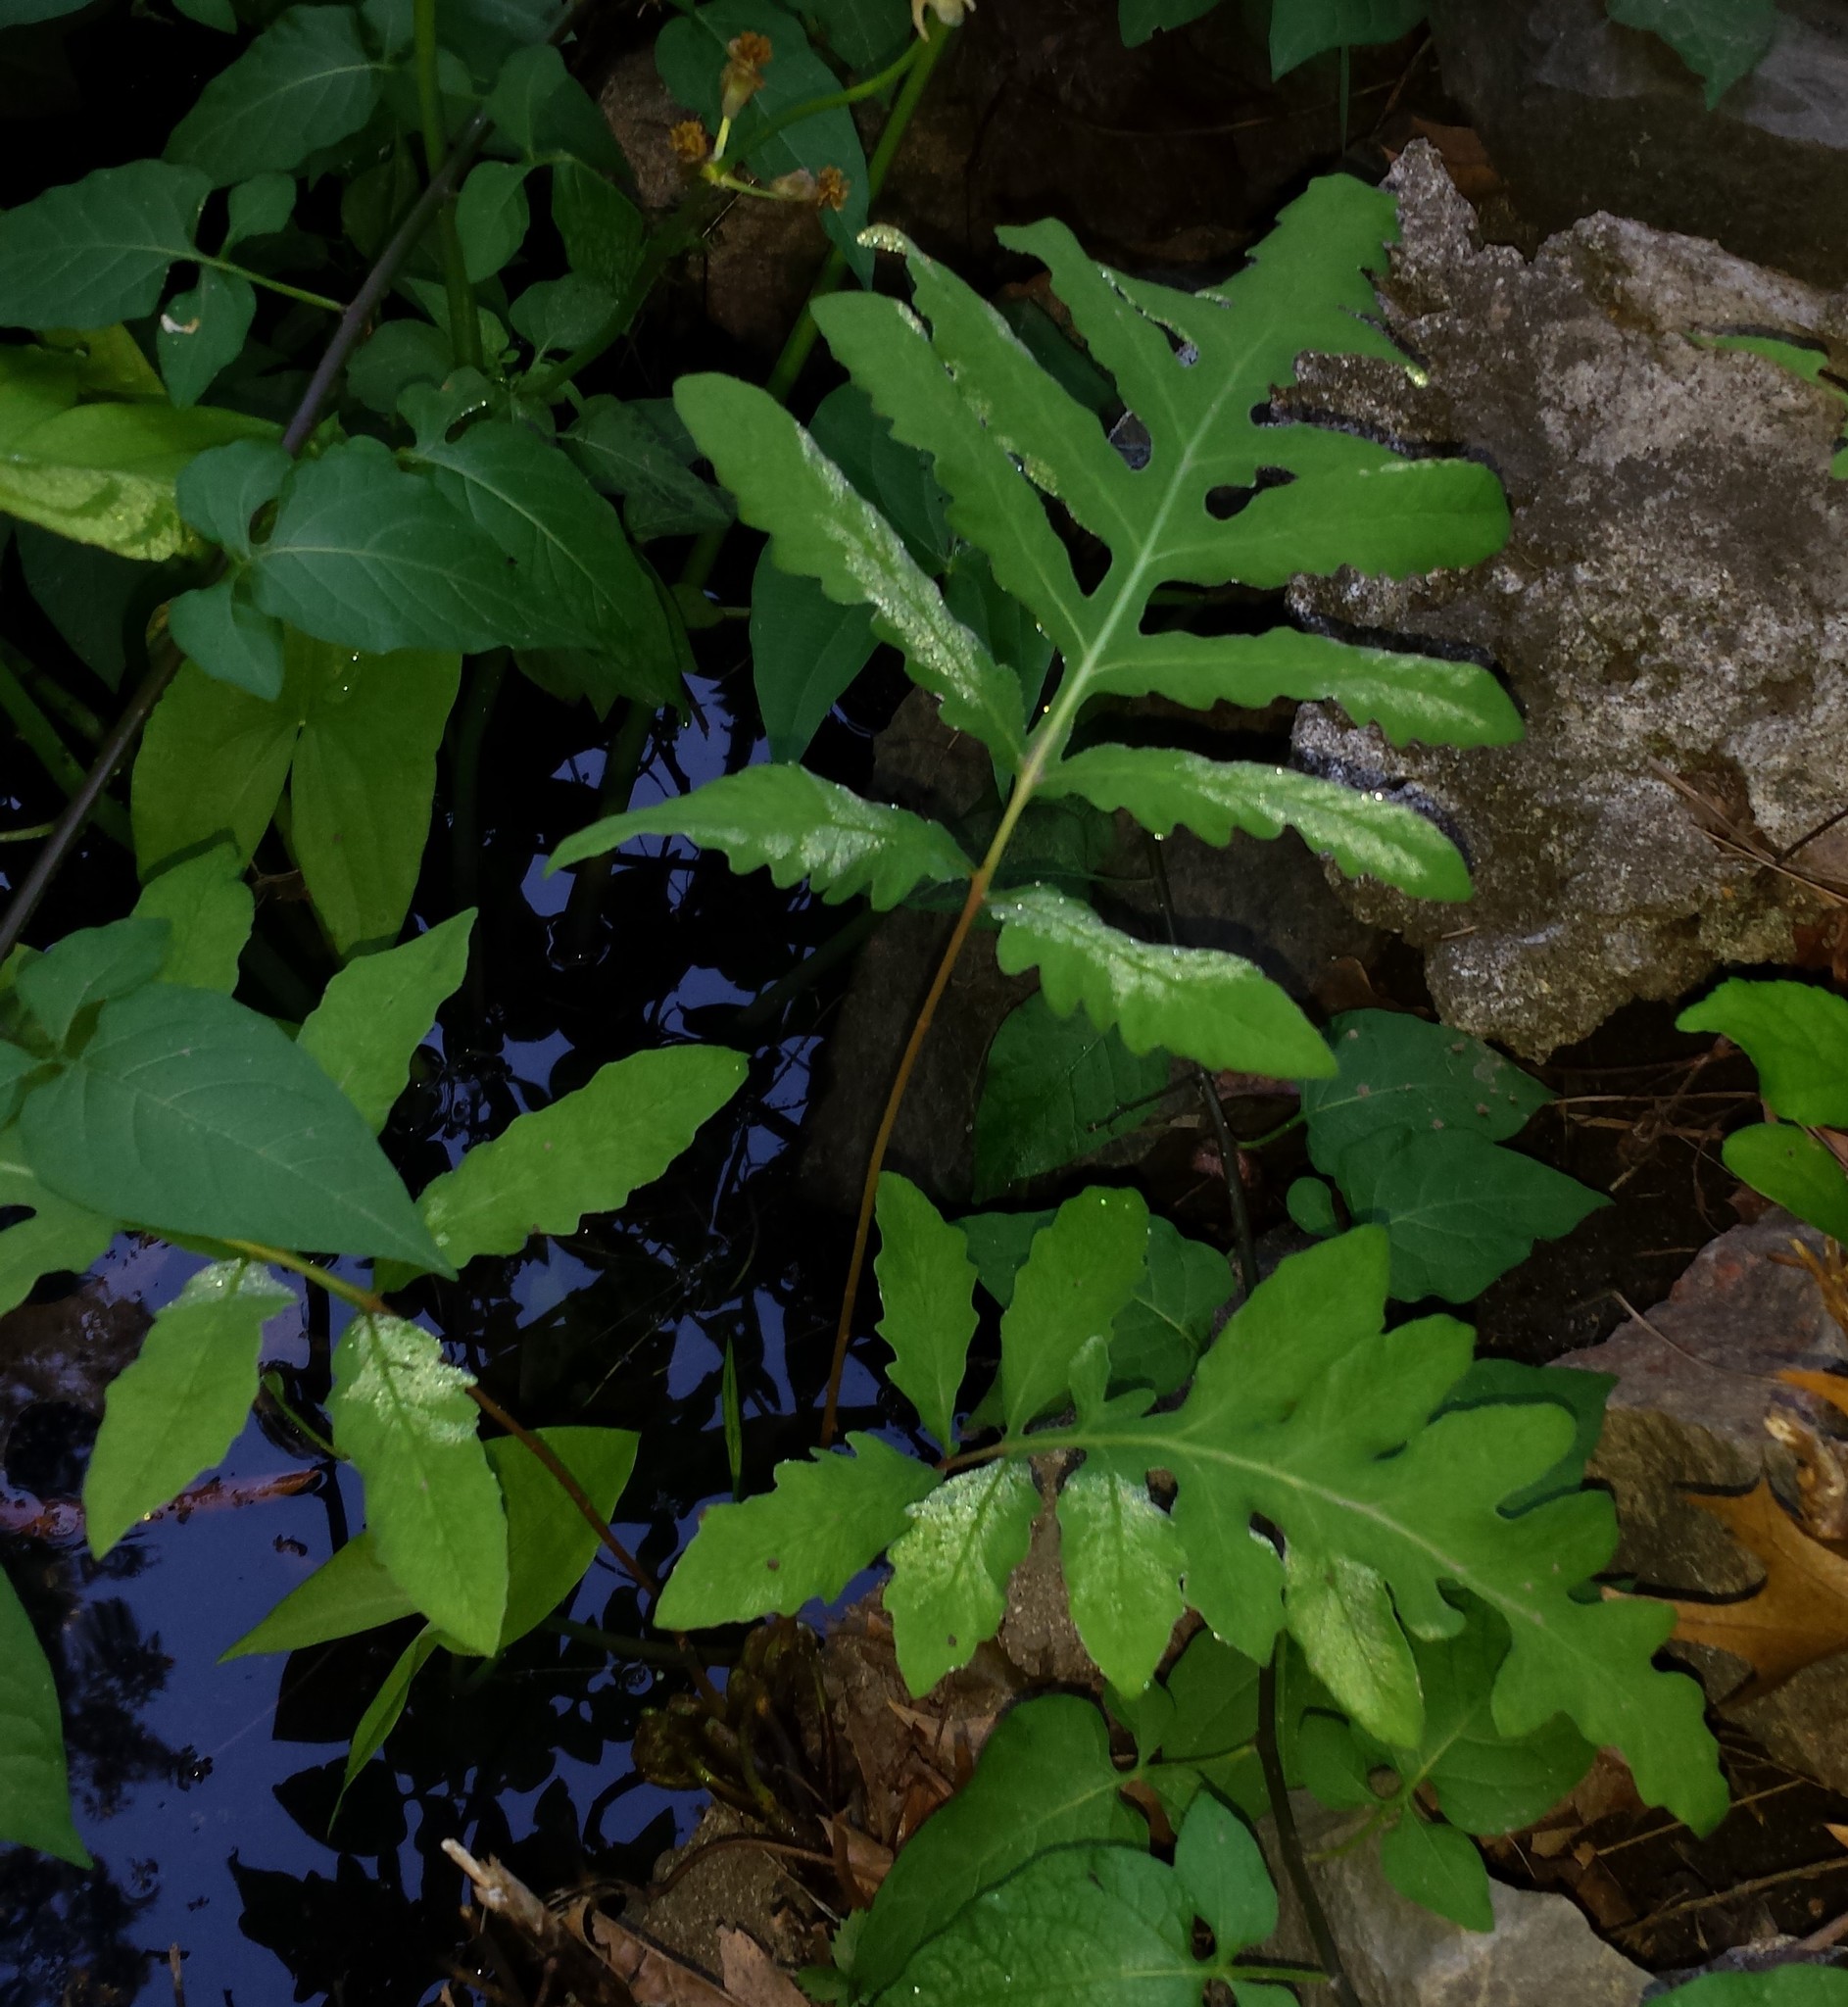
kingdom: Plantae
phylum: Tracheophyta
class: Polypodiopsida
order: Polypodiales
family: Onocleaceae
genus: Onoclea
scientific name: Onoclea sensibilis
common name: Sensitive fern
